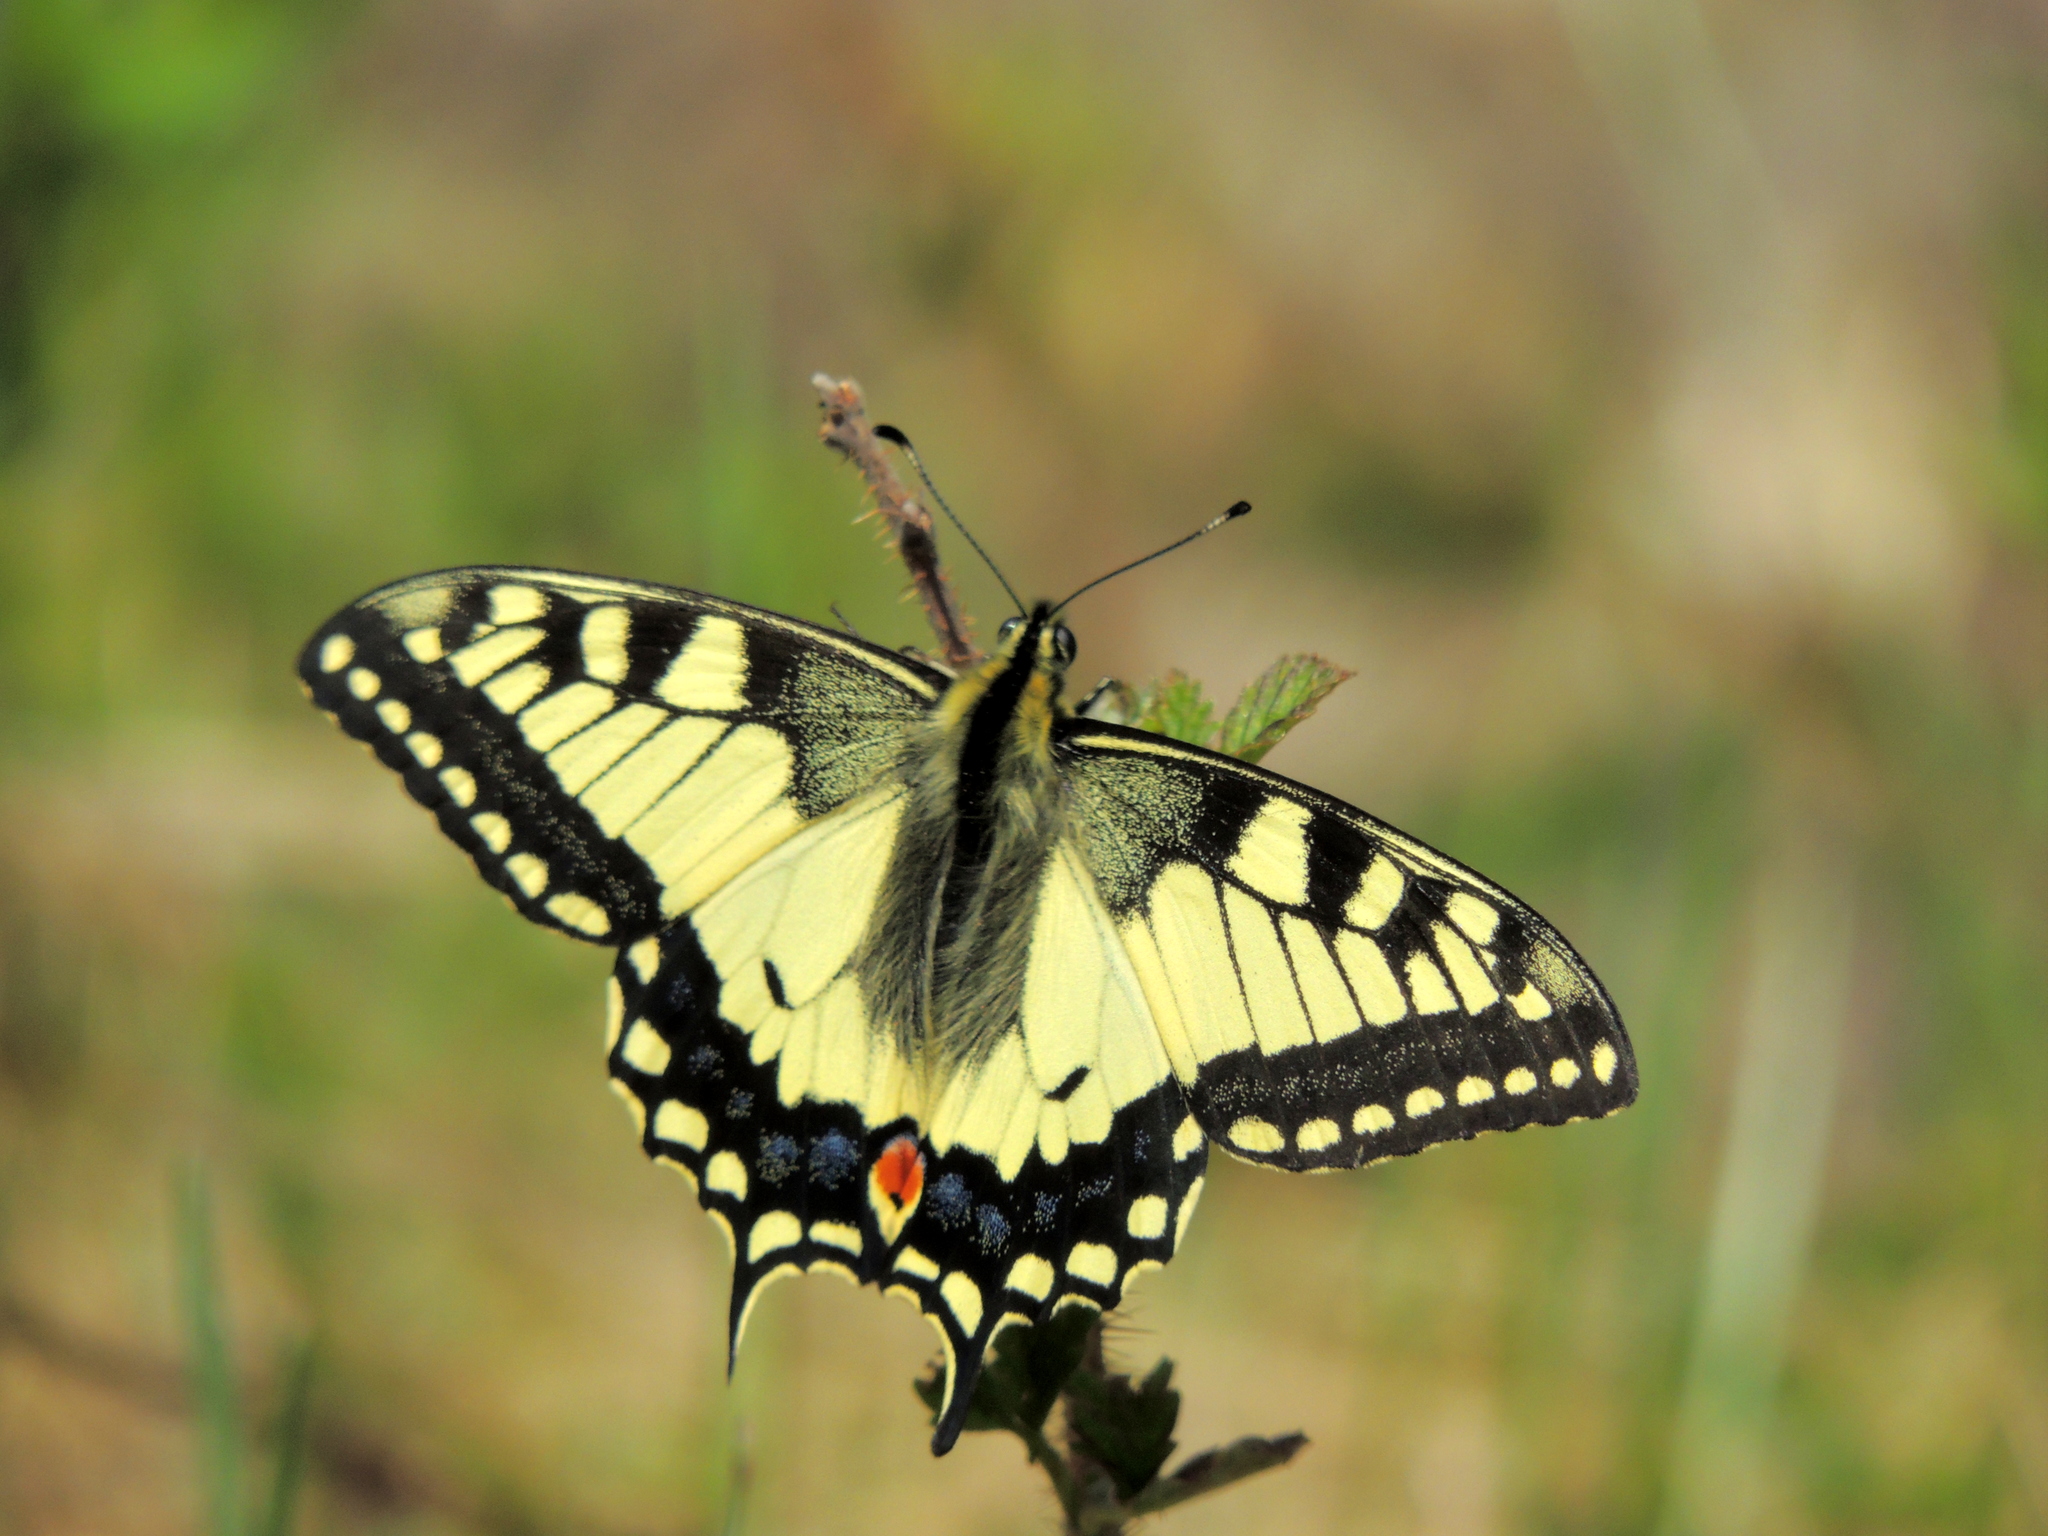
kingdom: Animalia
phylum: Arthropoda
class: Insecta
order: Lepidoptera
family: Papilionidae
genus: Papilio
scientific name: Papilio machaon
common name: Swallowtail
